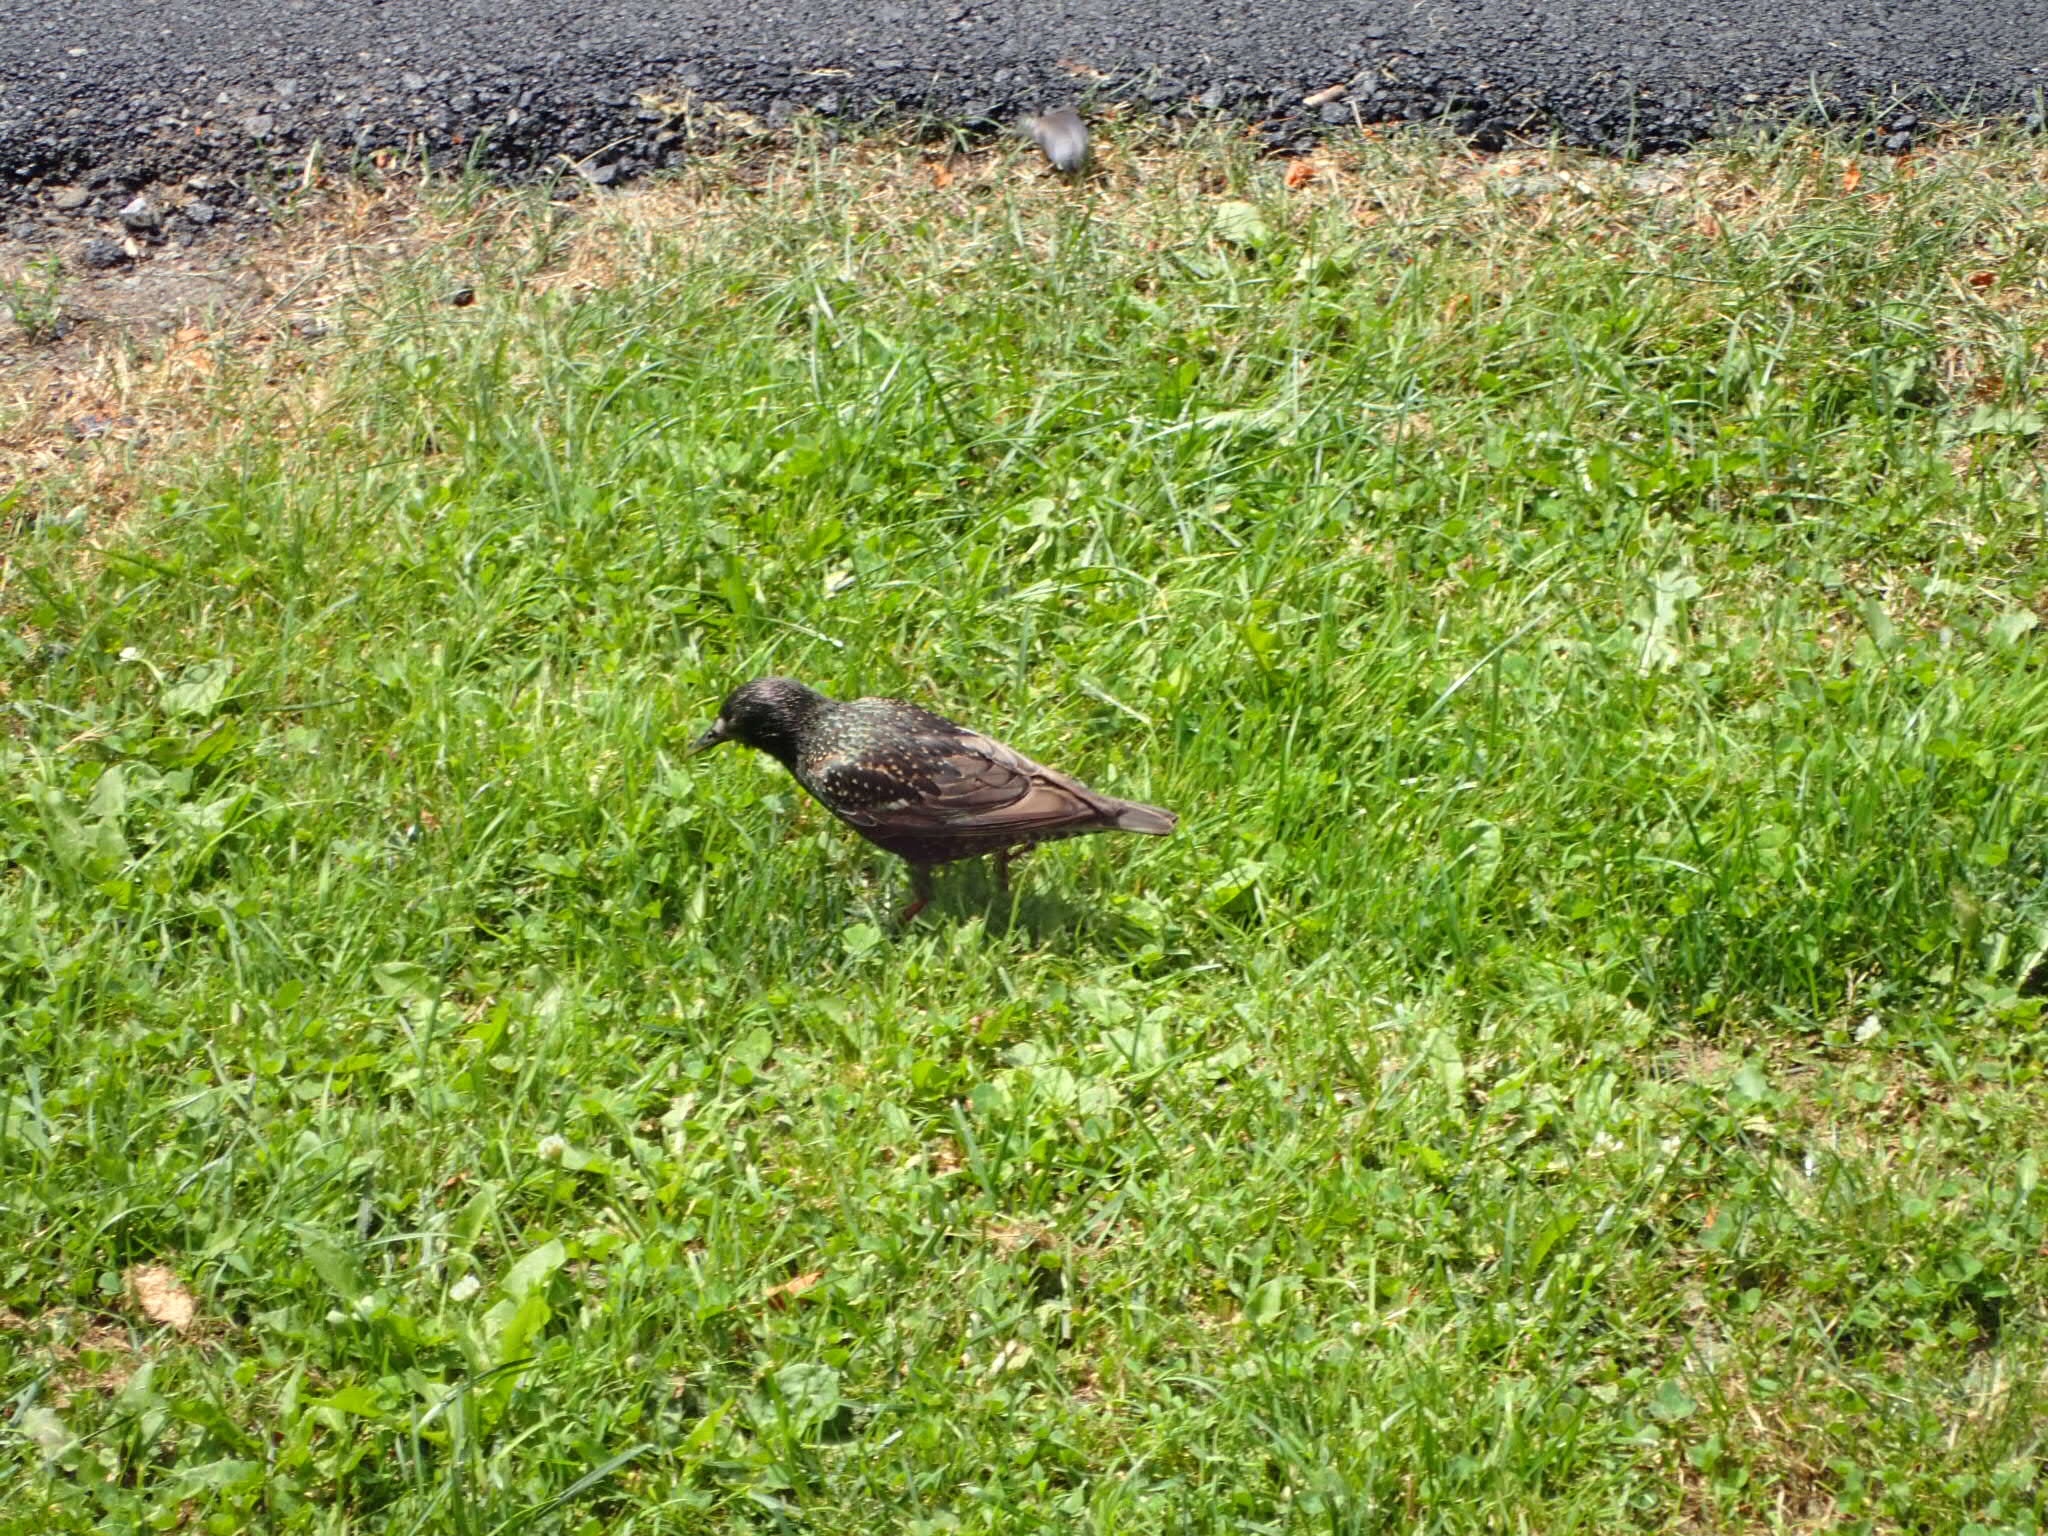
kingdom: Animalia
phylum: Chordata
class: Aves
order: Passeriformes
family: Sturnidae
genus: Sturnus
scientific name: Sturnus vulgaris
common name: Common starling
